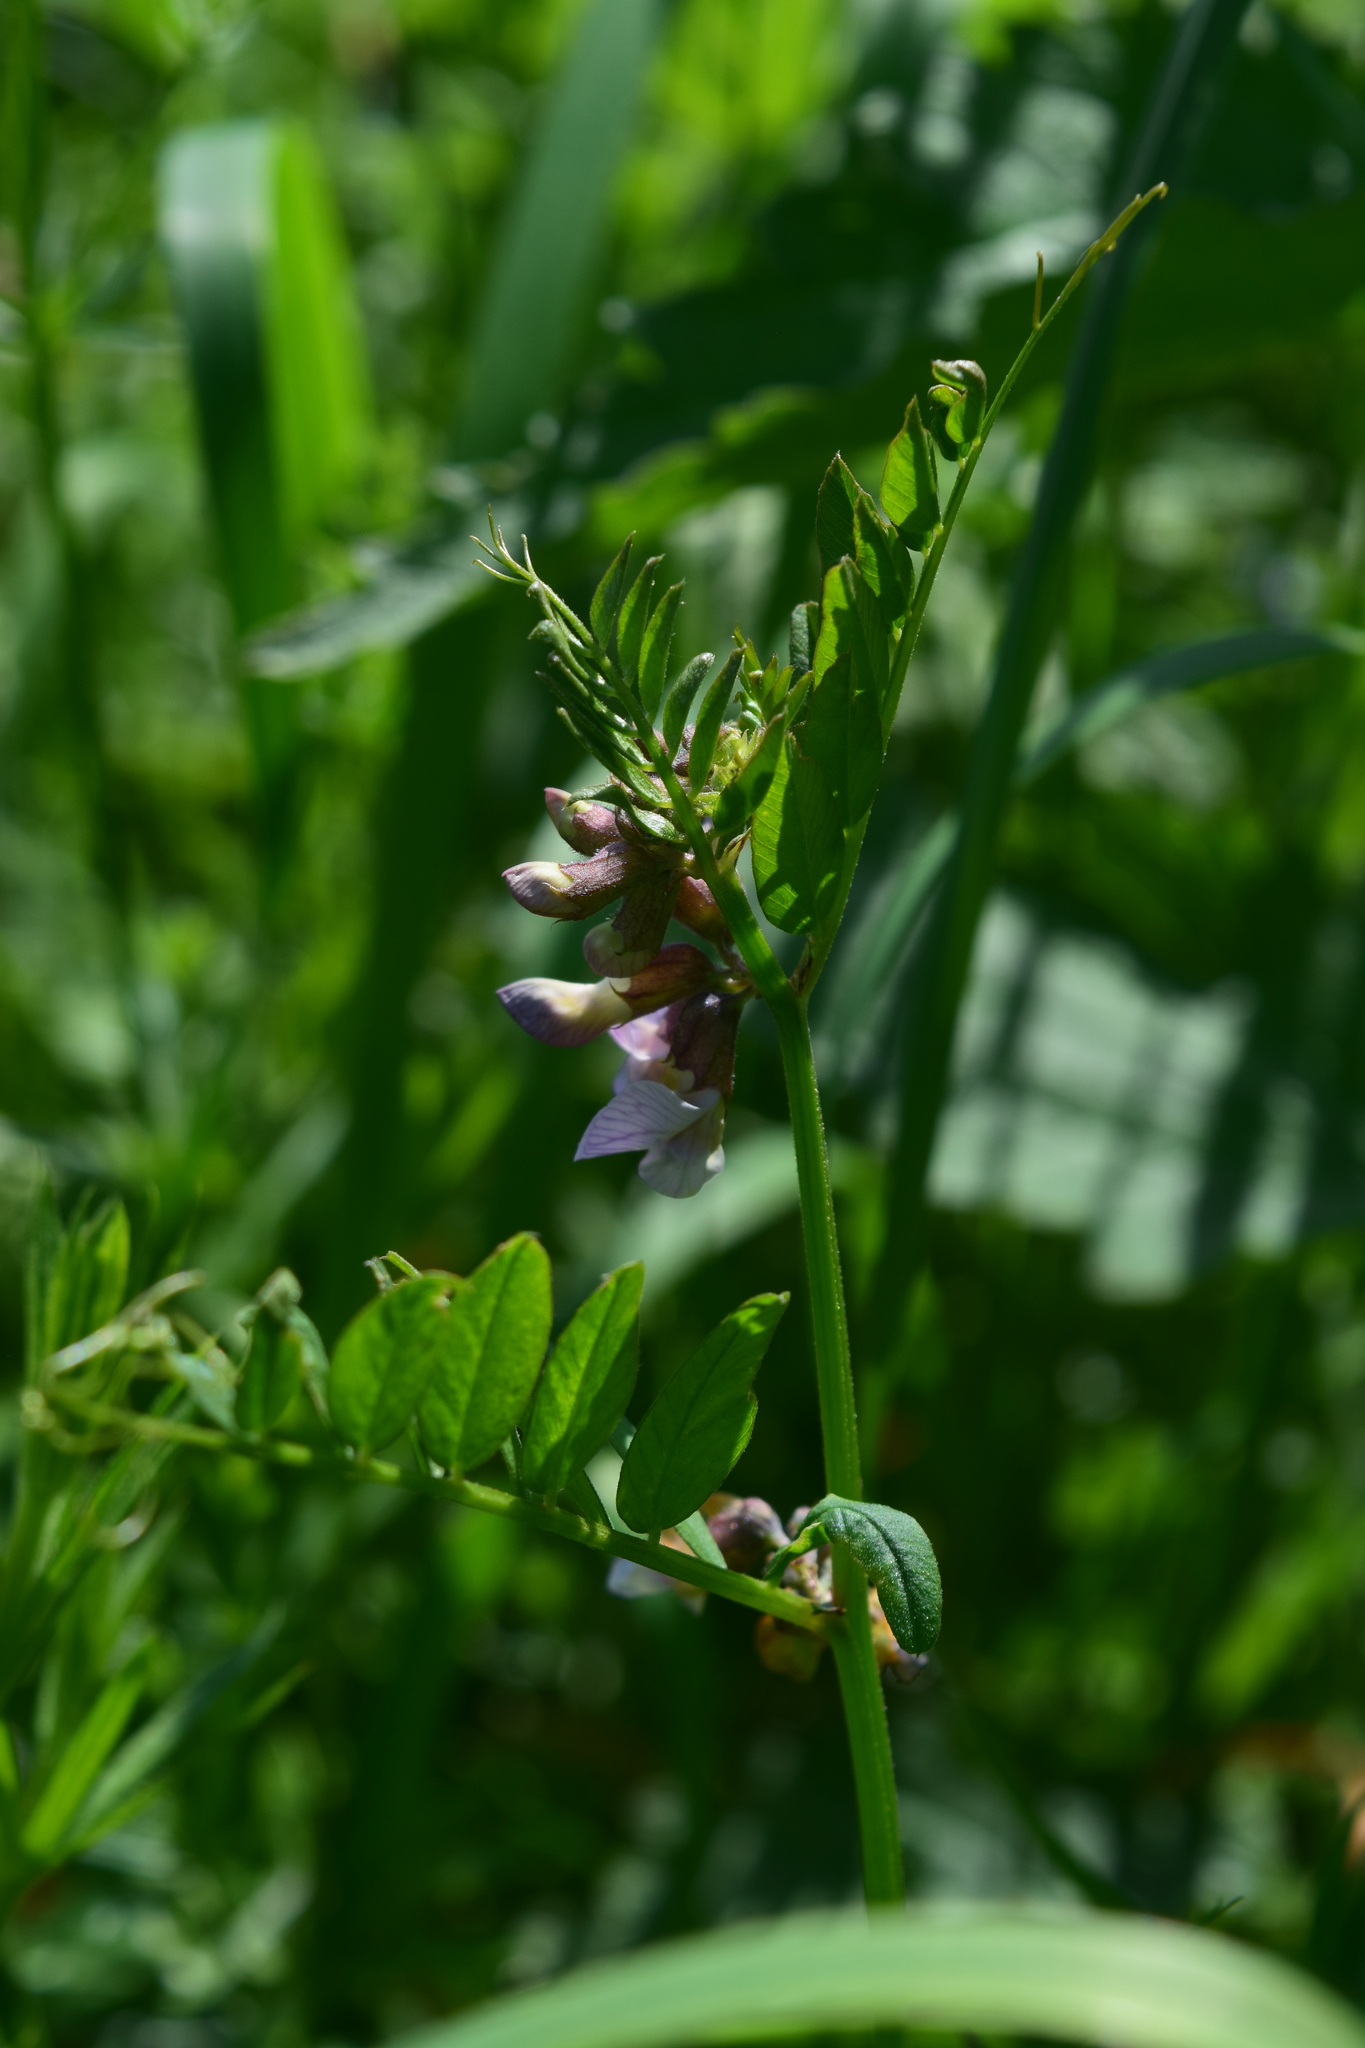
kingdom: Plantae
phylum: Tracheophyta
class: Magnoliopsida
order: Fabales
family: Fabaceae
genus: Vicia
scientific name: Vicia sepium
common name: Bush vetch
